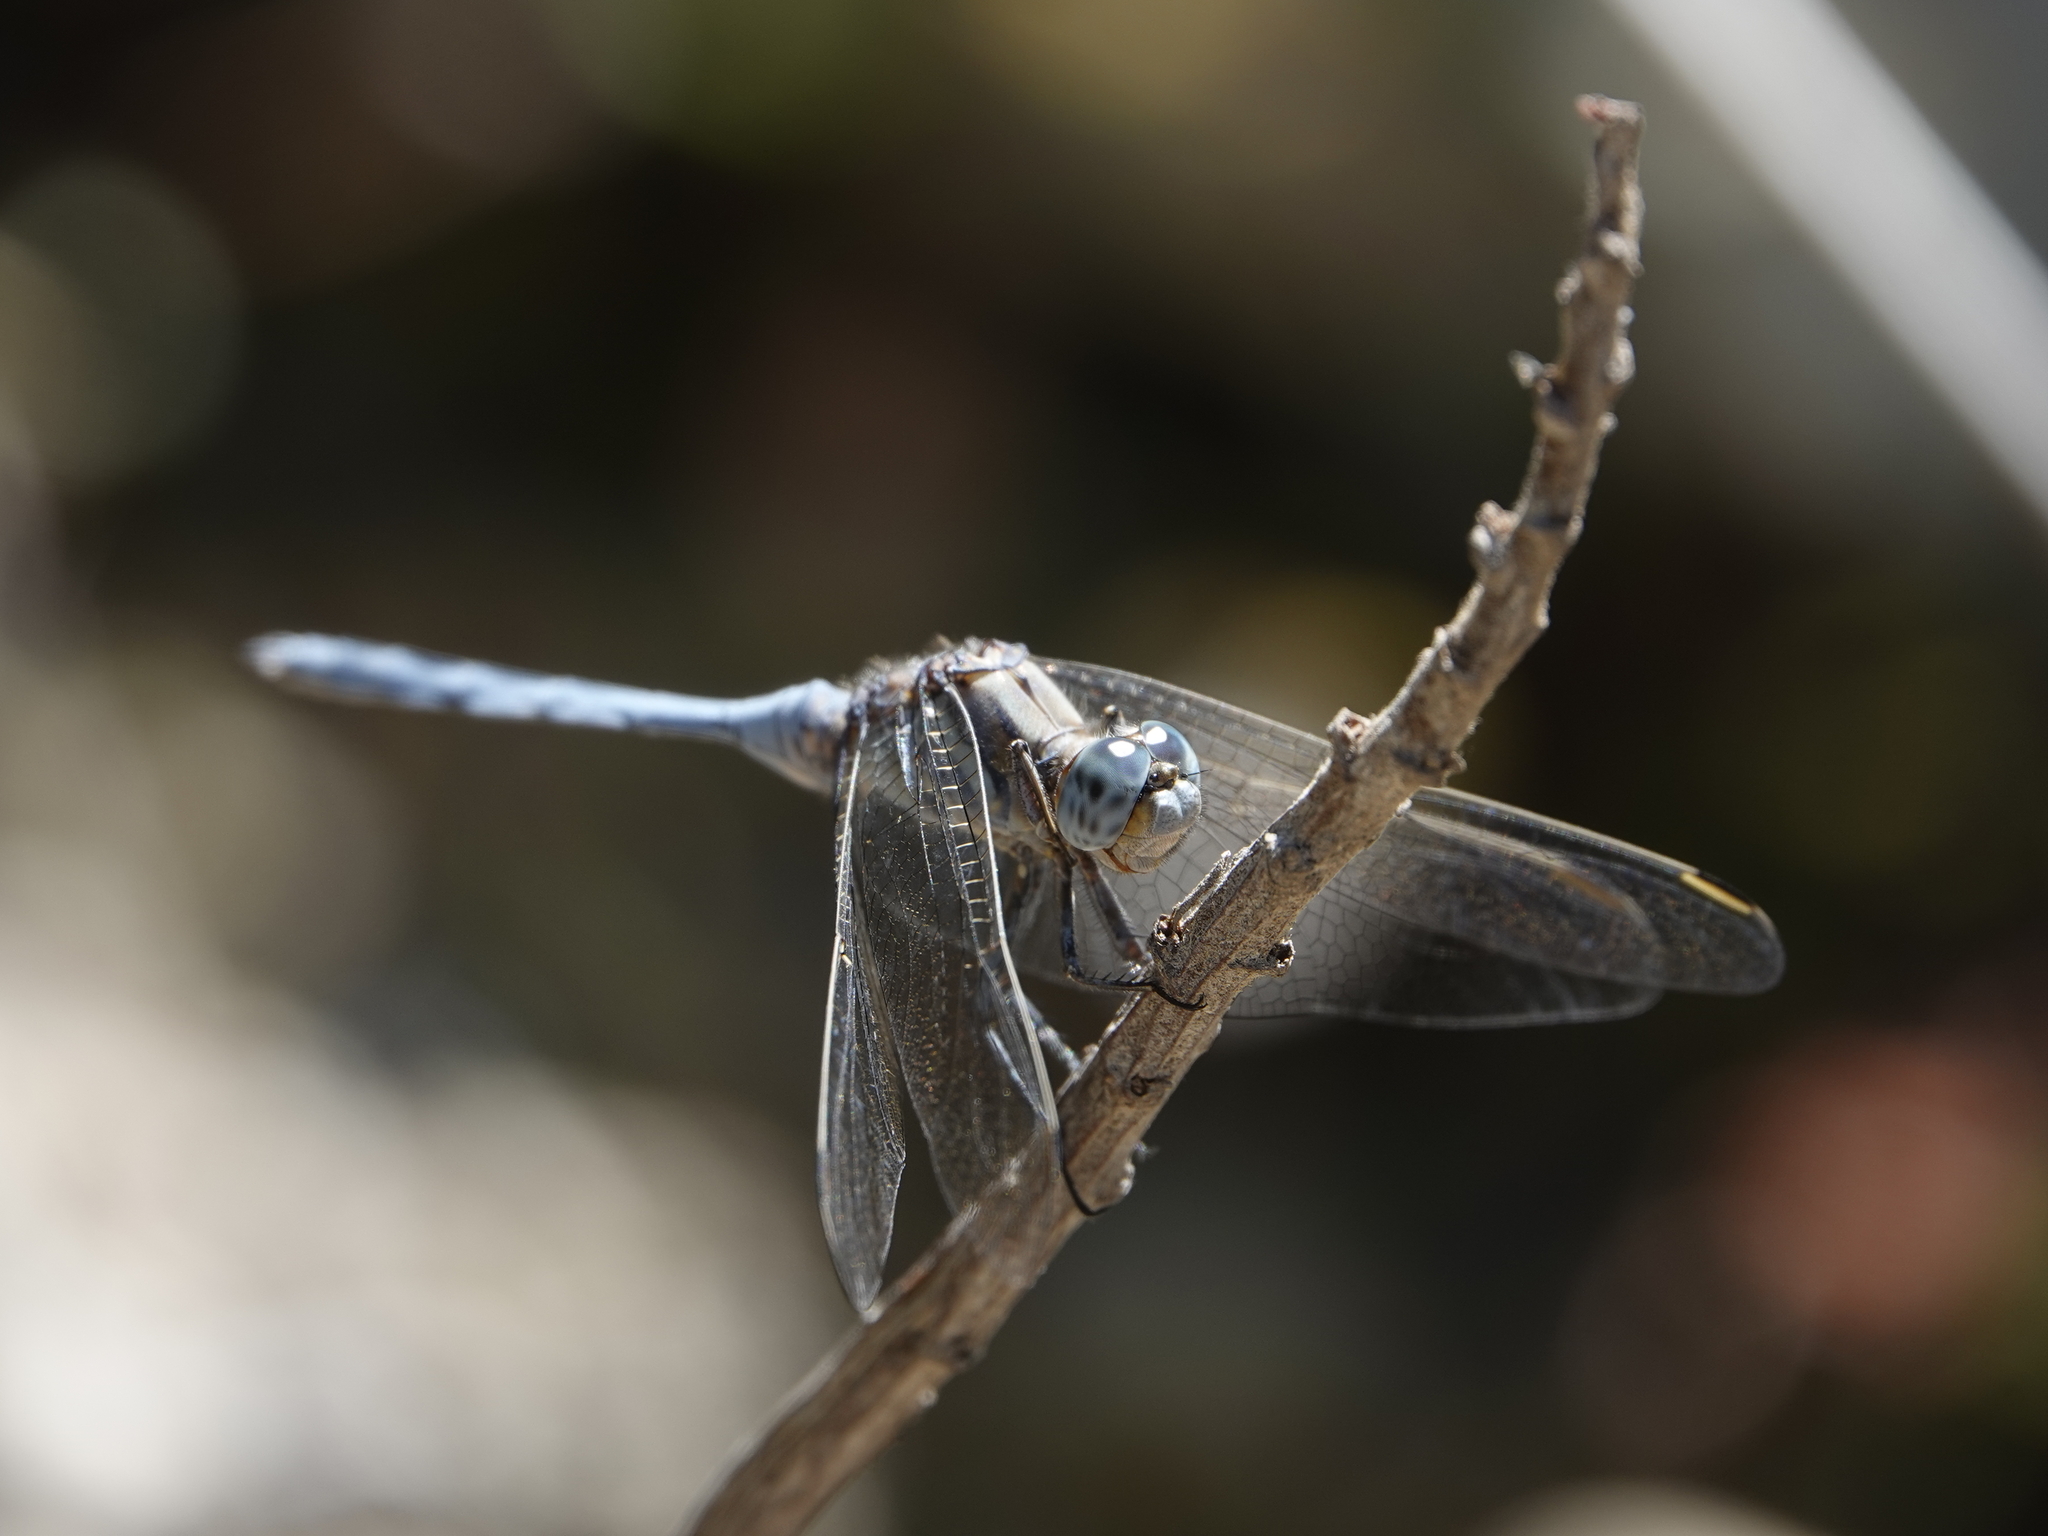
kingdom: Animalia
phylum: Arthropoda
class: Insecta
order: Odonata
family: Libellulidae
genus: Orthetrum
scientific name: Orthetrum chrysostigma
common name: Epaulet skimmer
